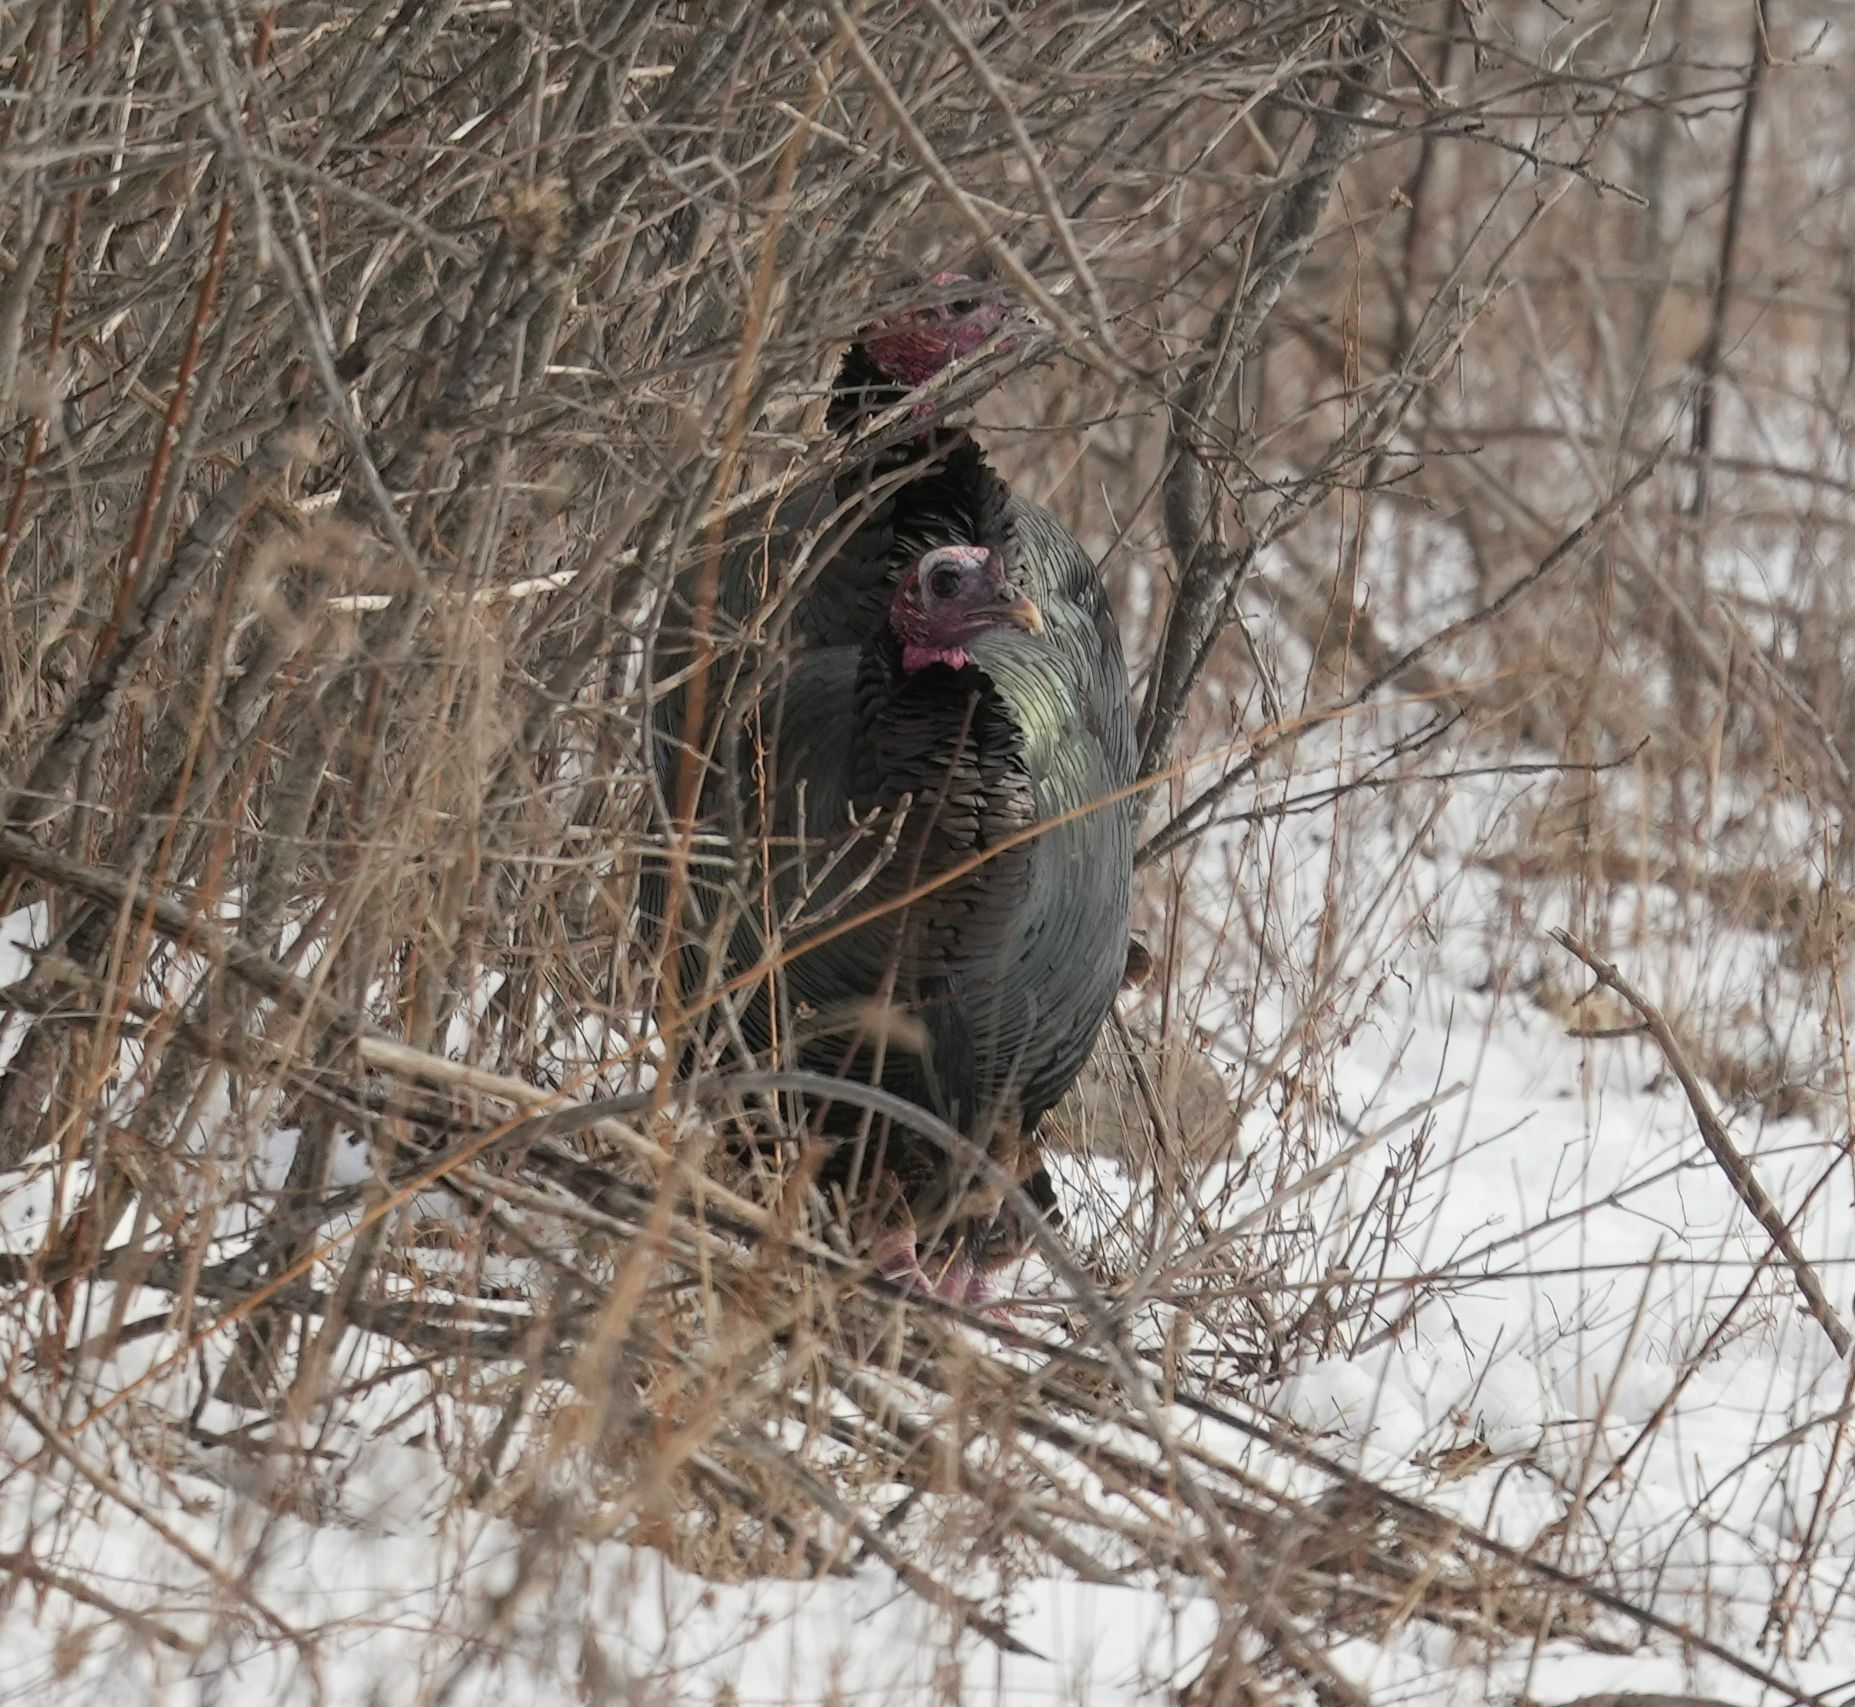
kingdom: Animalia
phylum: Chordata
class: Aves
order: Galliformes
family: Phasianidae
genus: Meleagris
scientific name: Meleagris gallopavo
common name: Wild turkey
